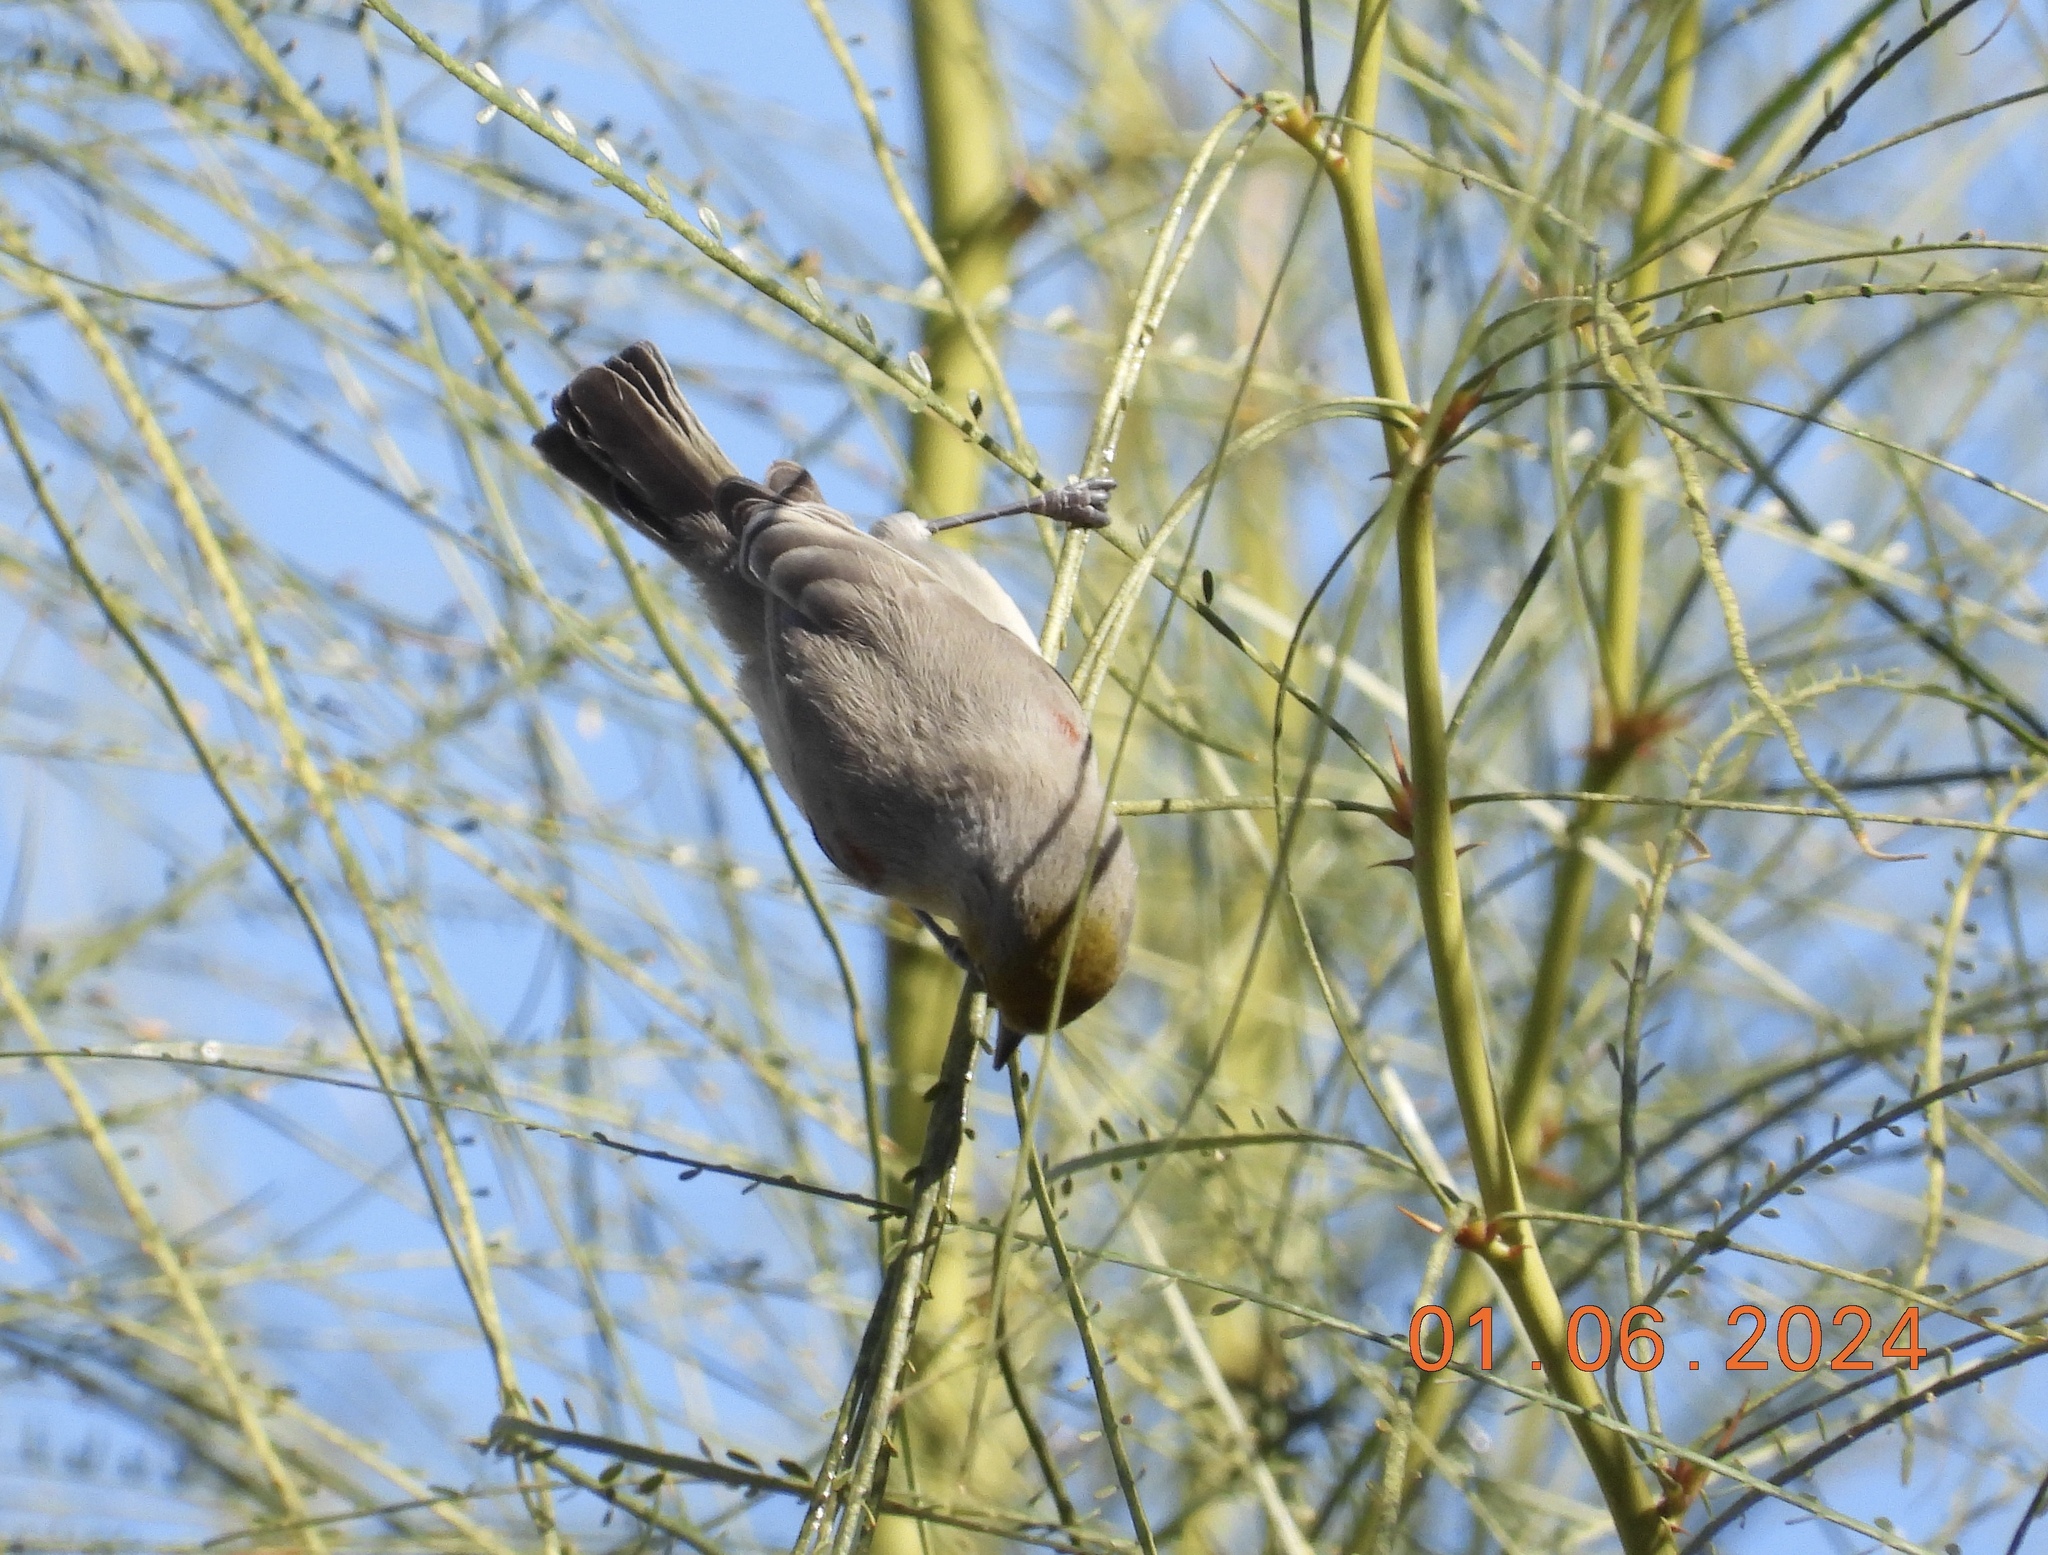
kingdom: Animalia
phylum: Chordata
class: Aves
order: Passeriformes
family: Remizidae
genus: Auriparus
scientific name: Auriparus flaviceps
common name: Verdin
